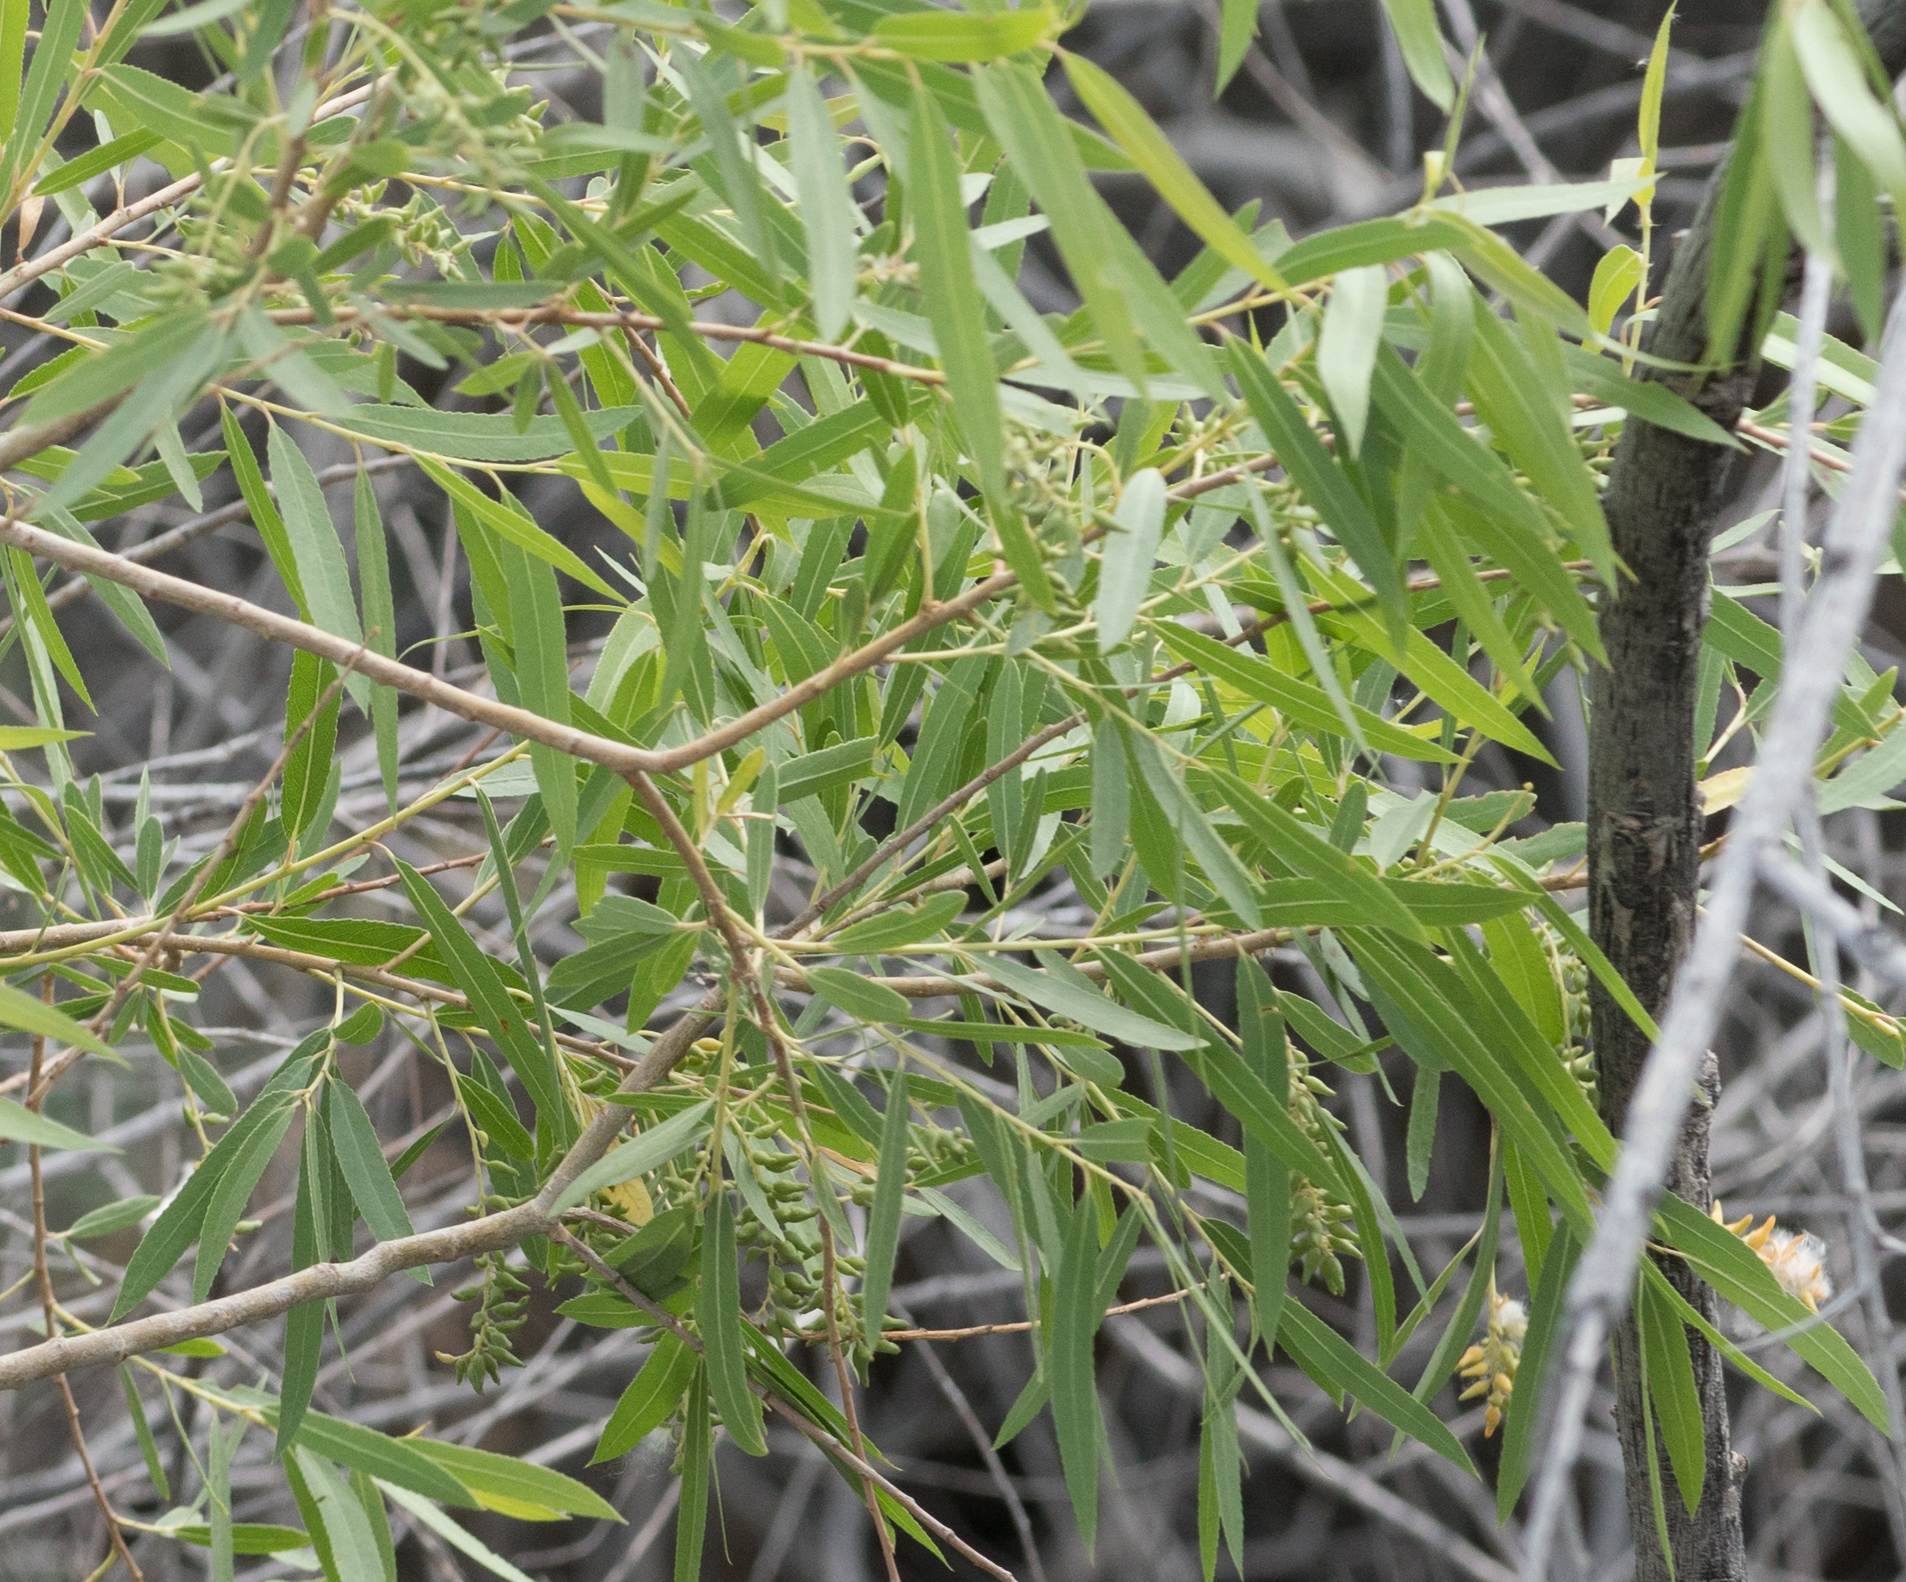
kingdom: Plantae
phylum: Tracheophyta
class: Magnoliopsida
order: Malpighiales
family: Salicaceae
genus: Salix
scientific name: Salix gooddingii
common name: Goodding's willow
